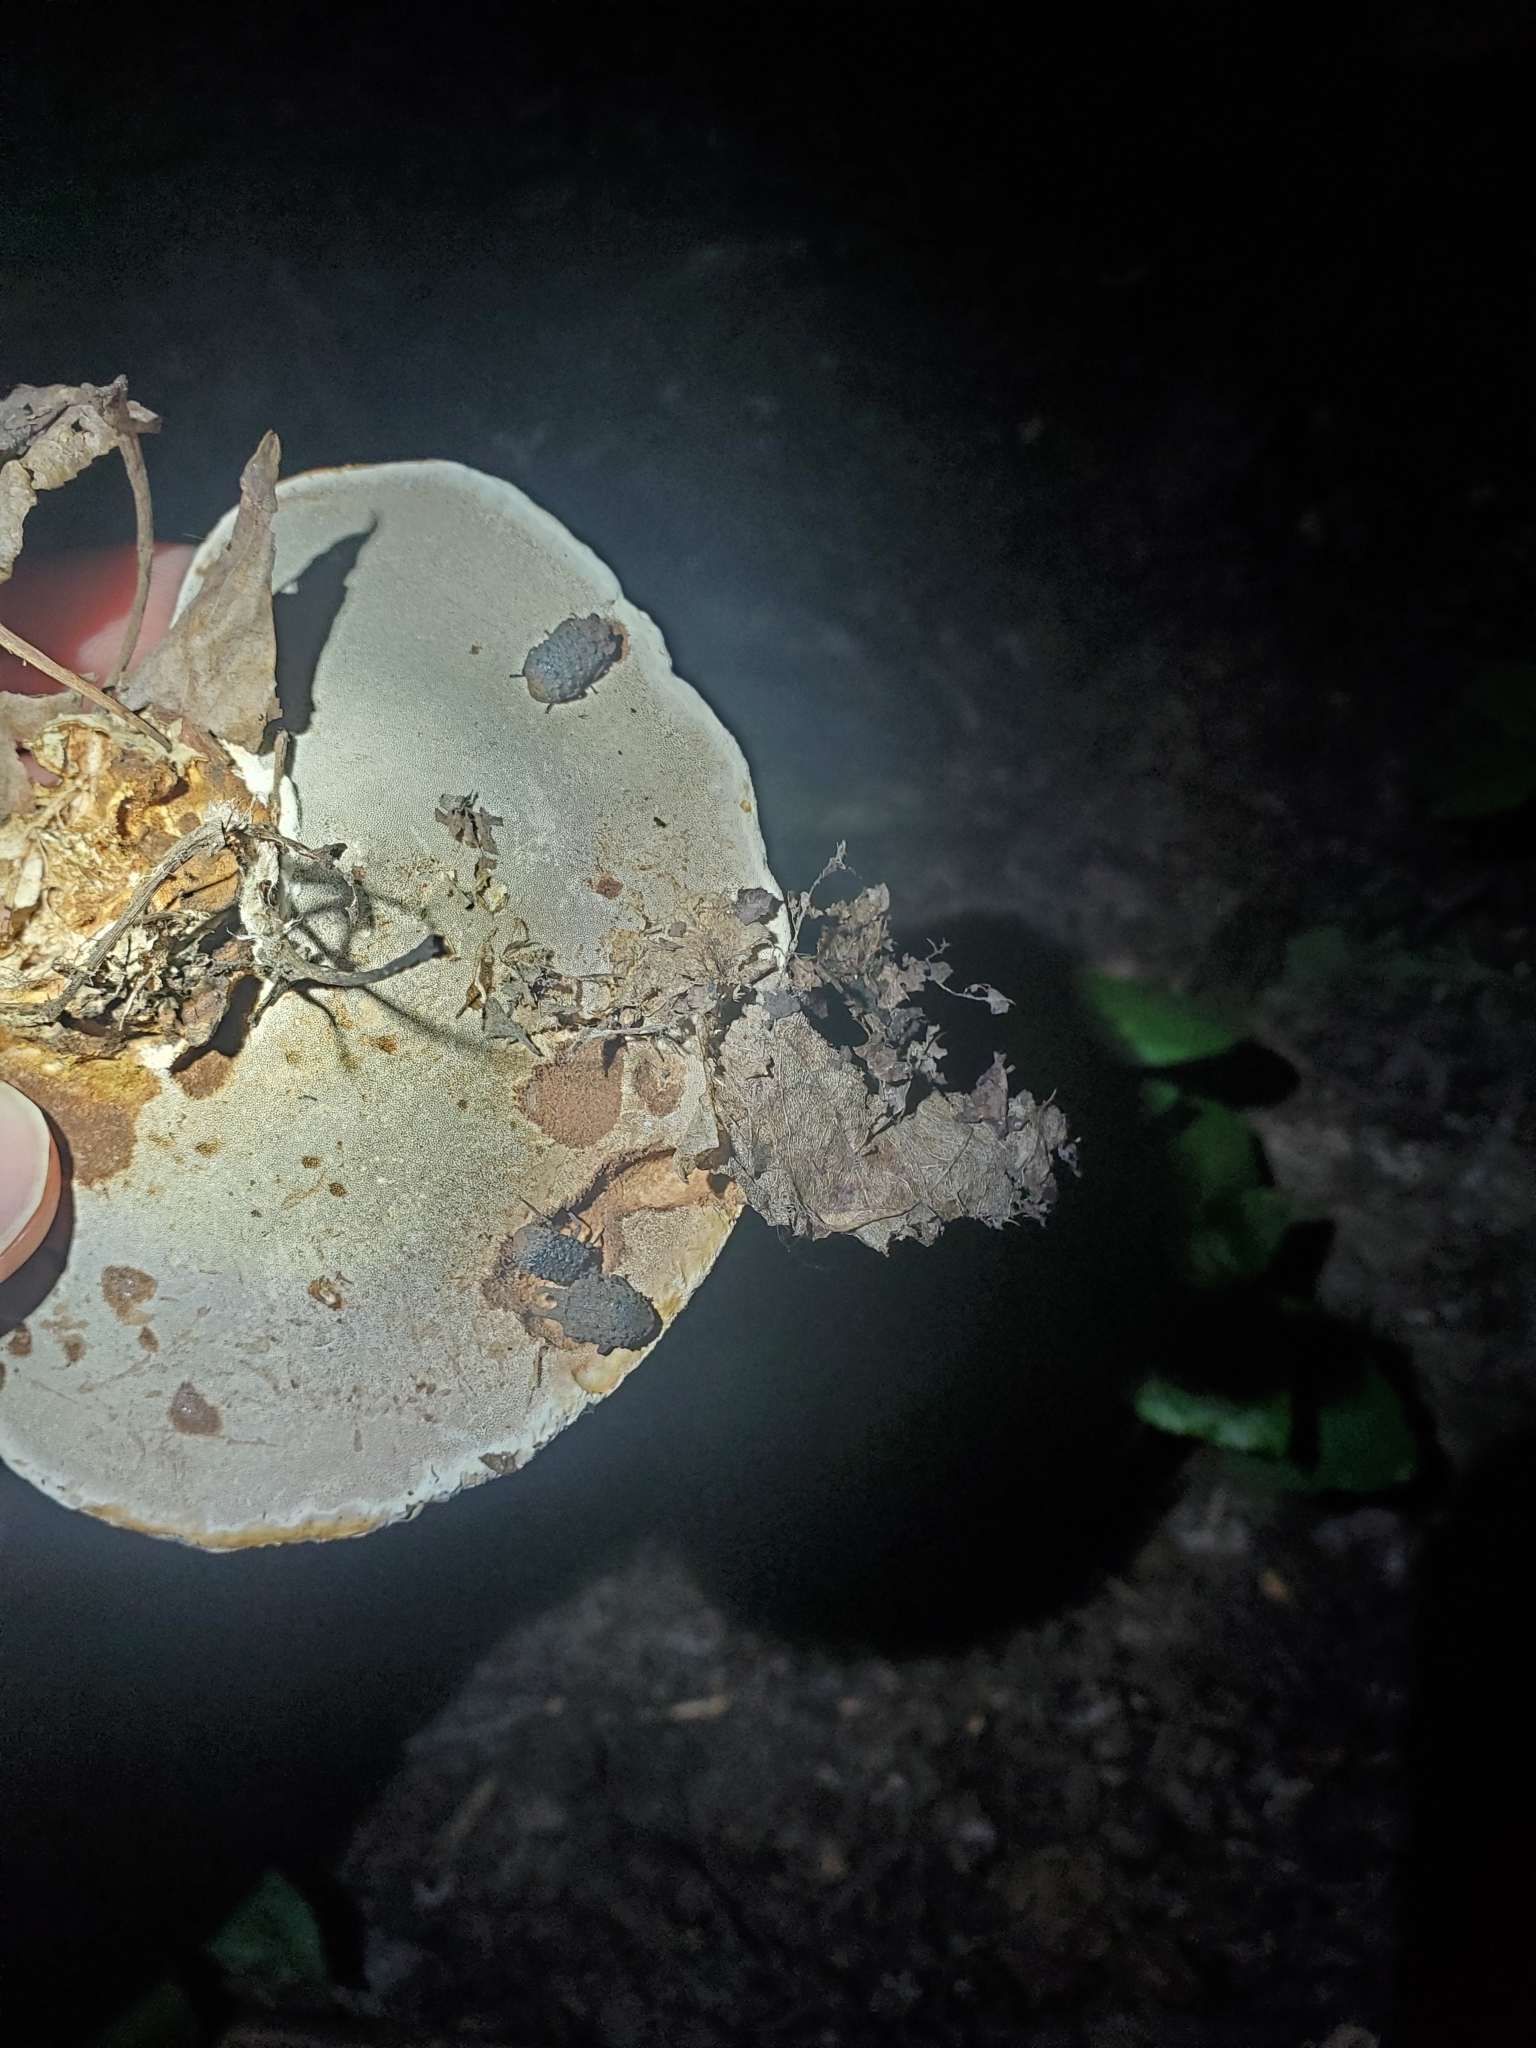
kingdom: Animalia
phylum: Arthropoda
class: Insecta
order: Coleoptera
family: Tenebrionidae
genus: Gnatocerus
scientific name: Gnatocerus cornutus
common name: Broad-horned flour beetle
